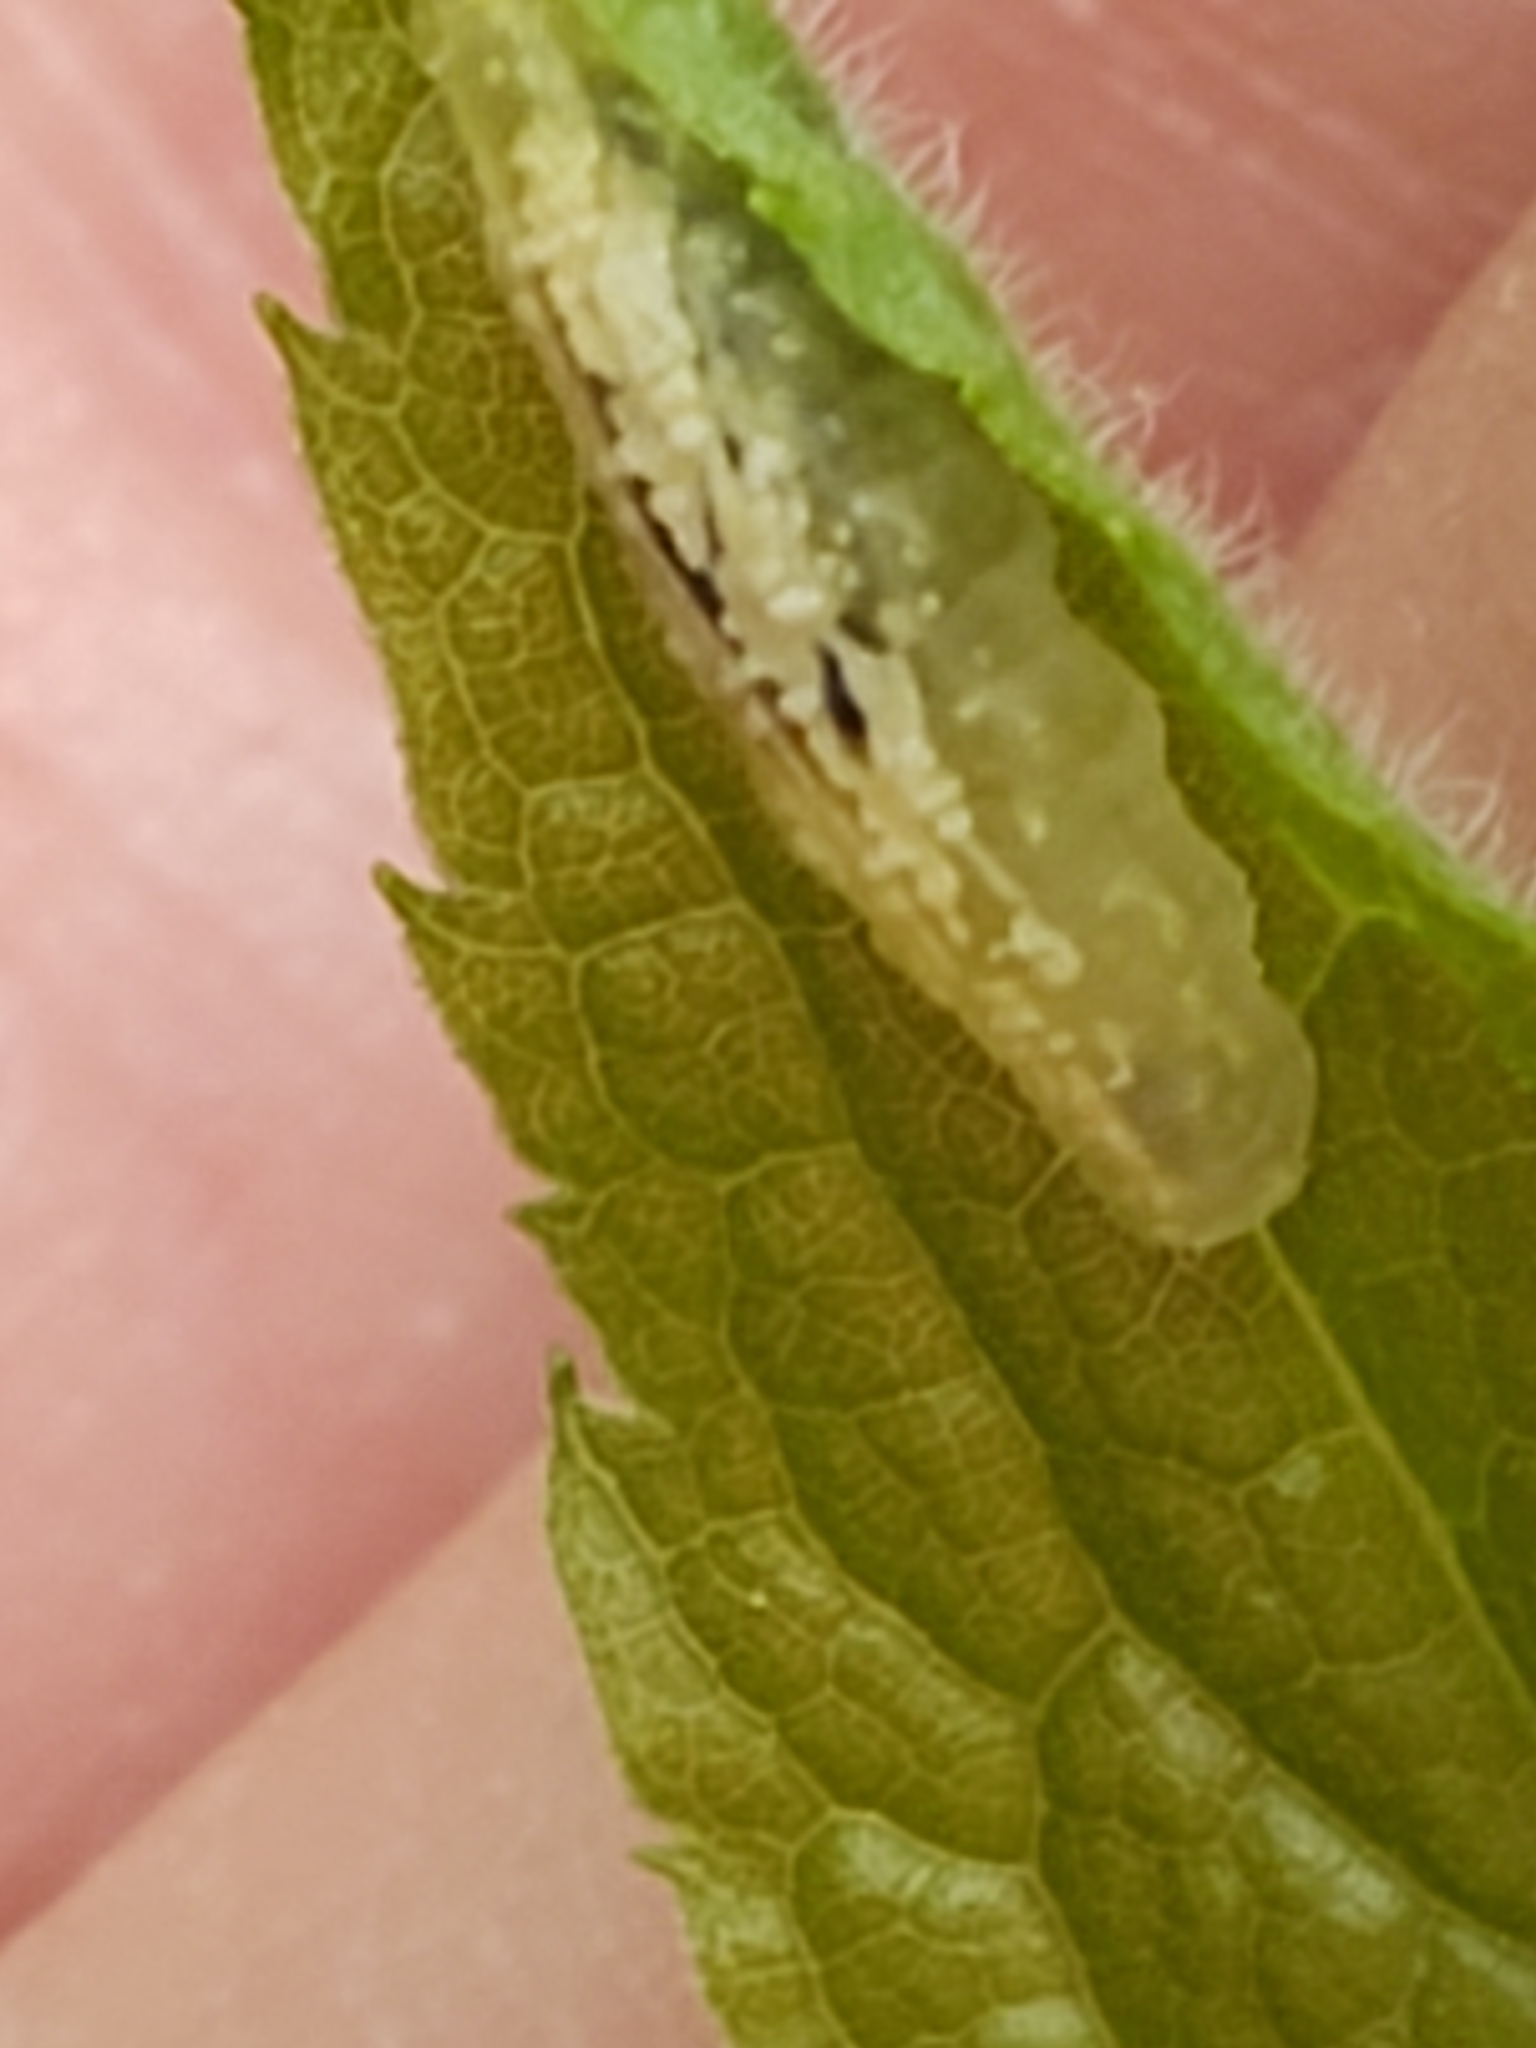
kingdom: Animalia
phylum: Arthropoda
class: Insecta
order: Diptera
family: Syrphidae
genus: Syrphus
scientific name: Syrphus
